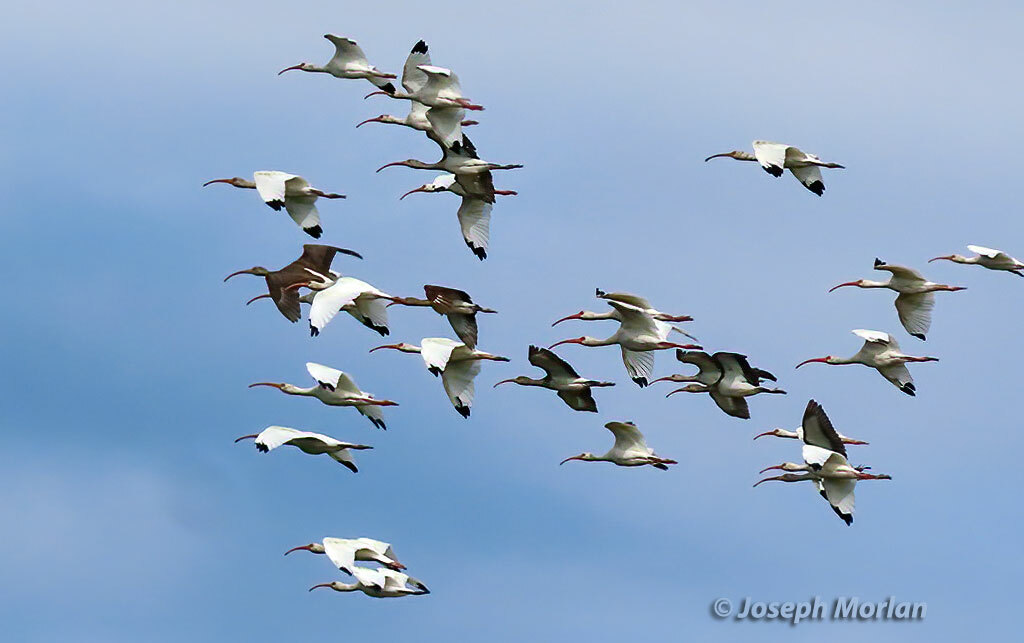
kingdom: Animalia
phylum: Chordata
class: Aves
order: Pelecaniformes
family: Threskiornithidae
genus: Eudocimus
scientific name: Eudocimus albus
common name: White ibis
